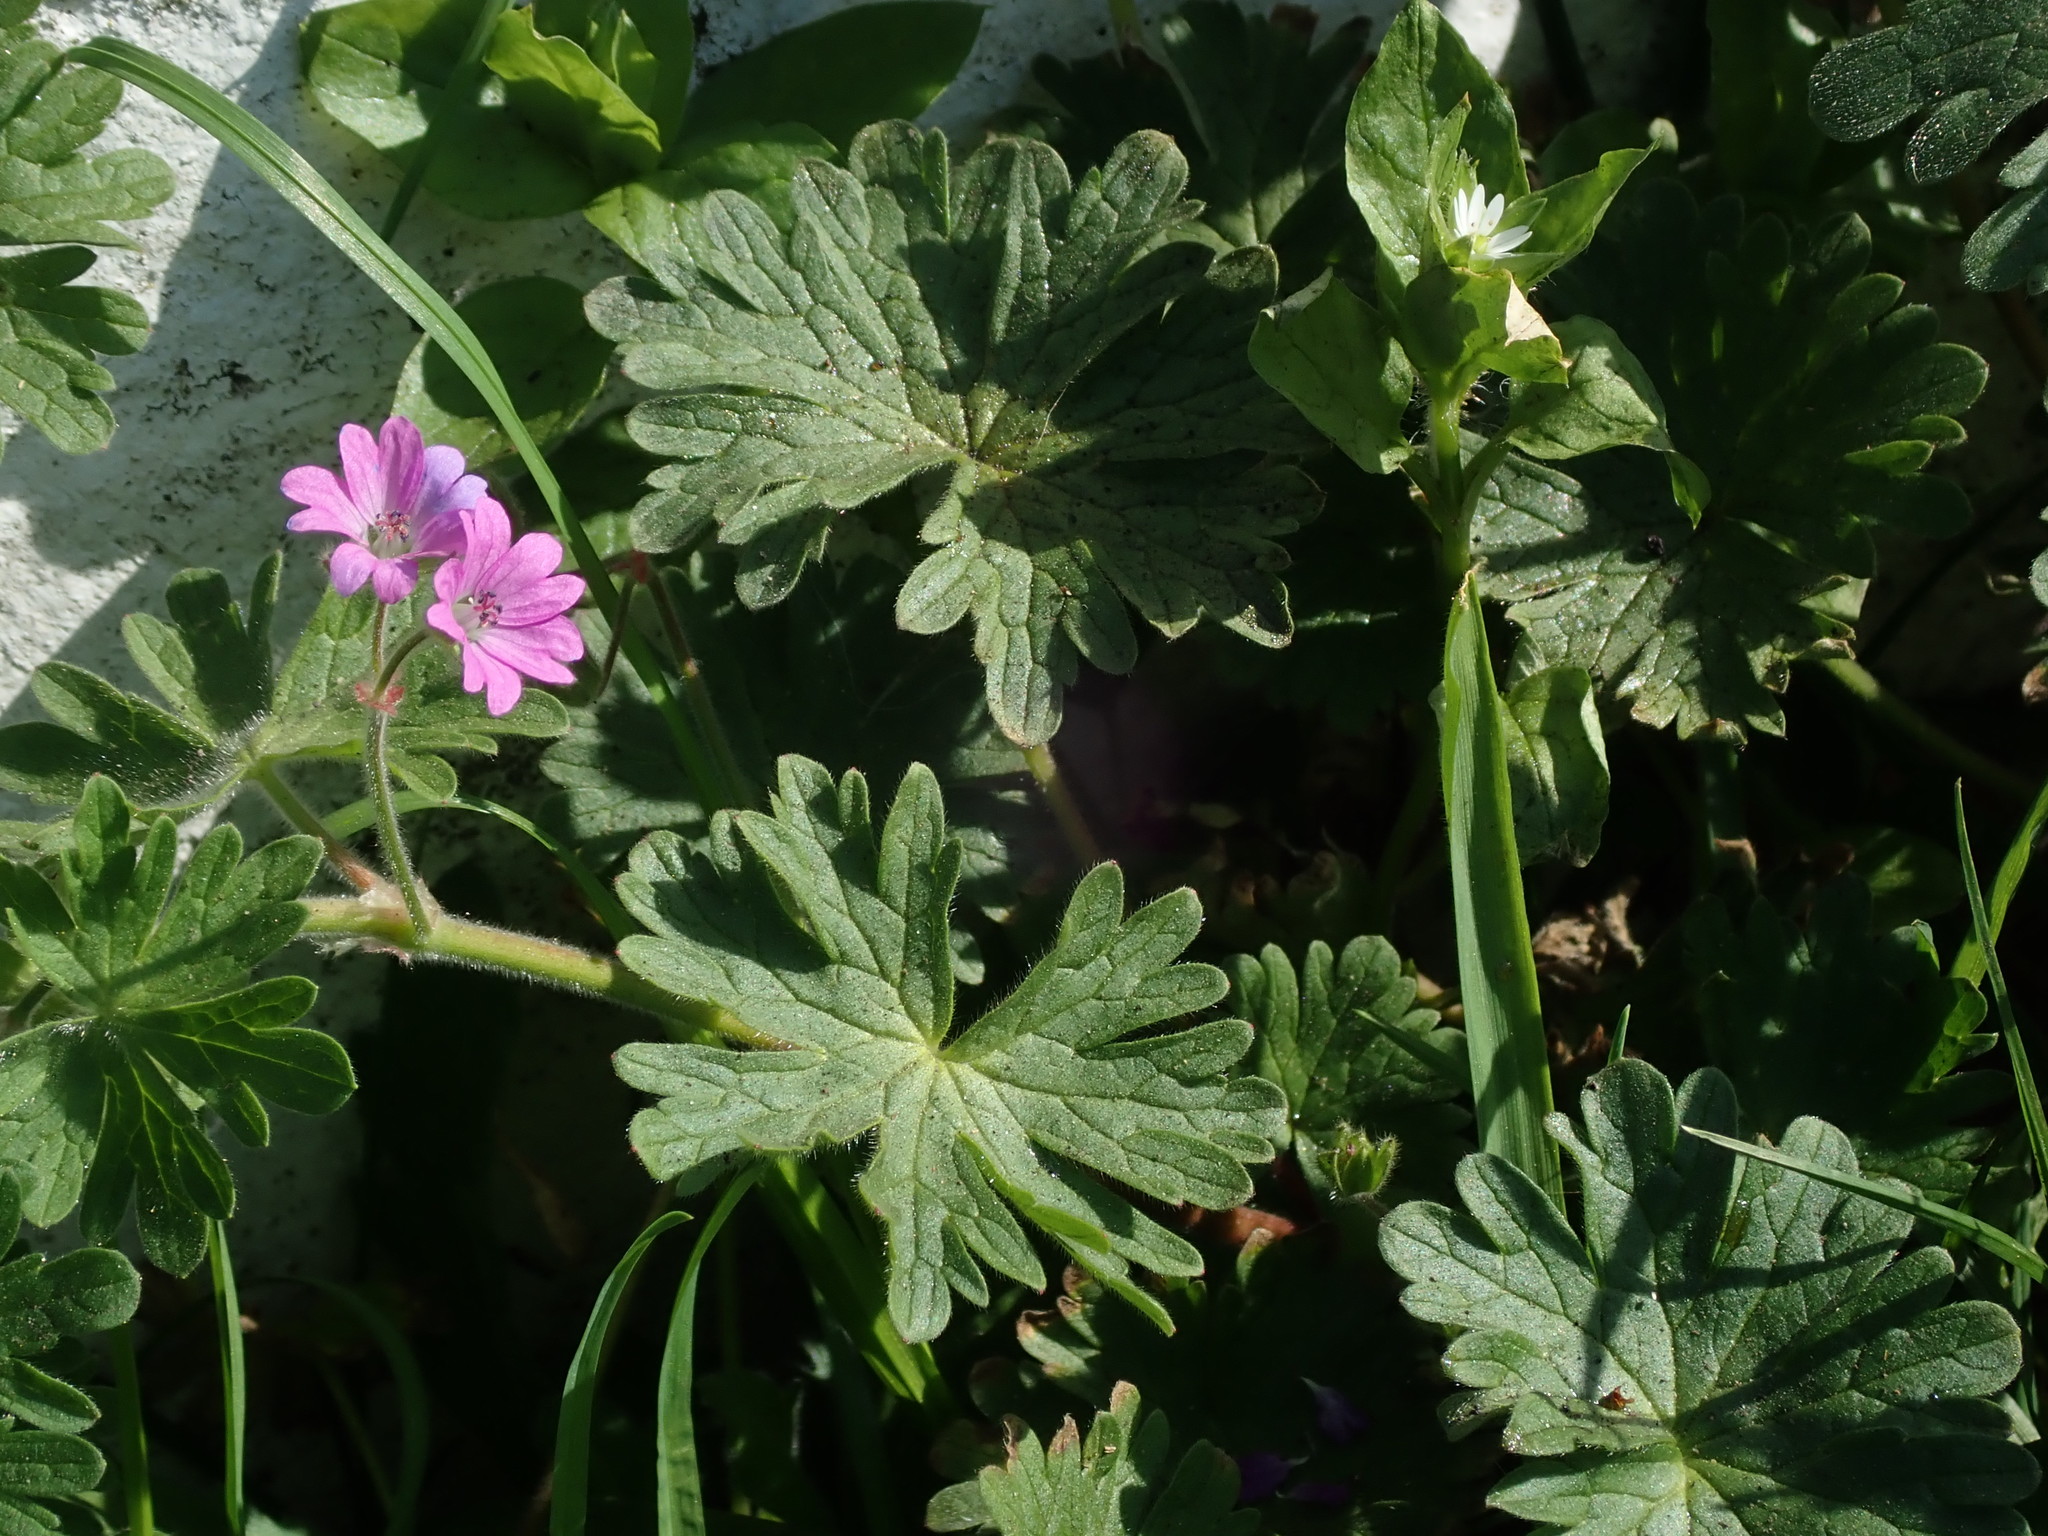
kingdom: Plantae
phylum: Tracheophyta
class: Magnoliopsida
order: Geraniales
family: Geraniaceae
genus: Geranium
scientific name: Geranium molle
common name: Dove's-foot crane's-bill
